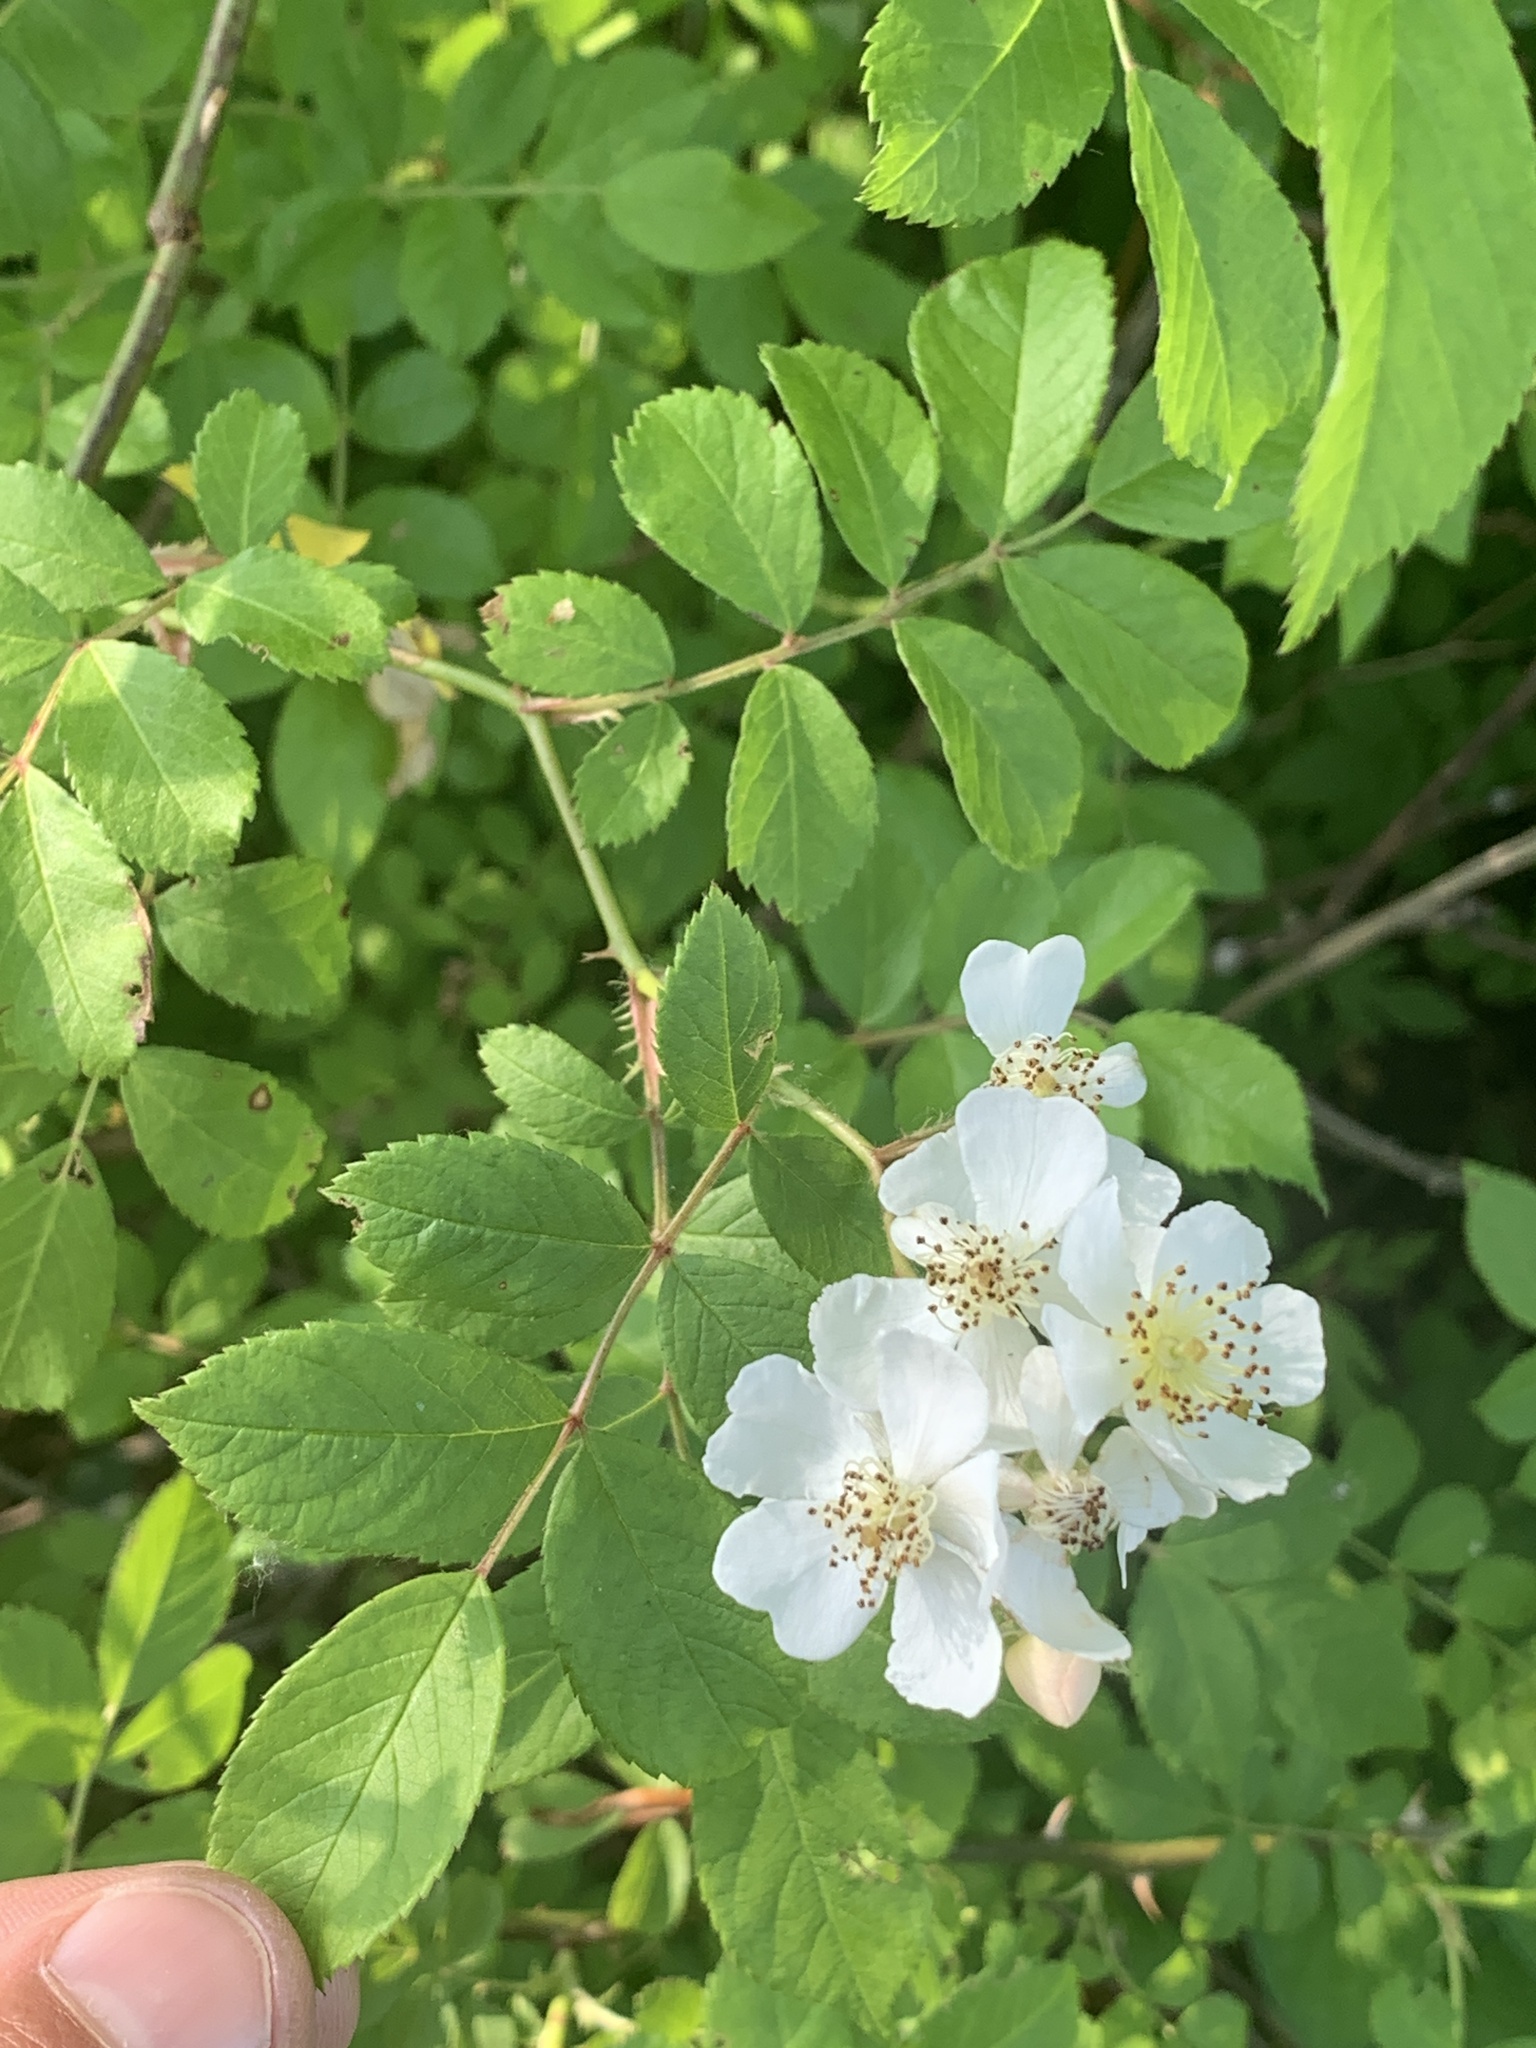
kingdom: Plantae
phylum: Tracheophyta
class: Magnoliopsida
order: Rosales
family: Rosaceae
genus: Rosa
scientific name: Rosa multiflora
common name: Multiflora rose
